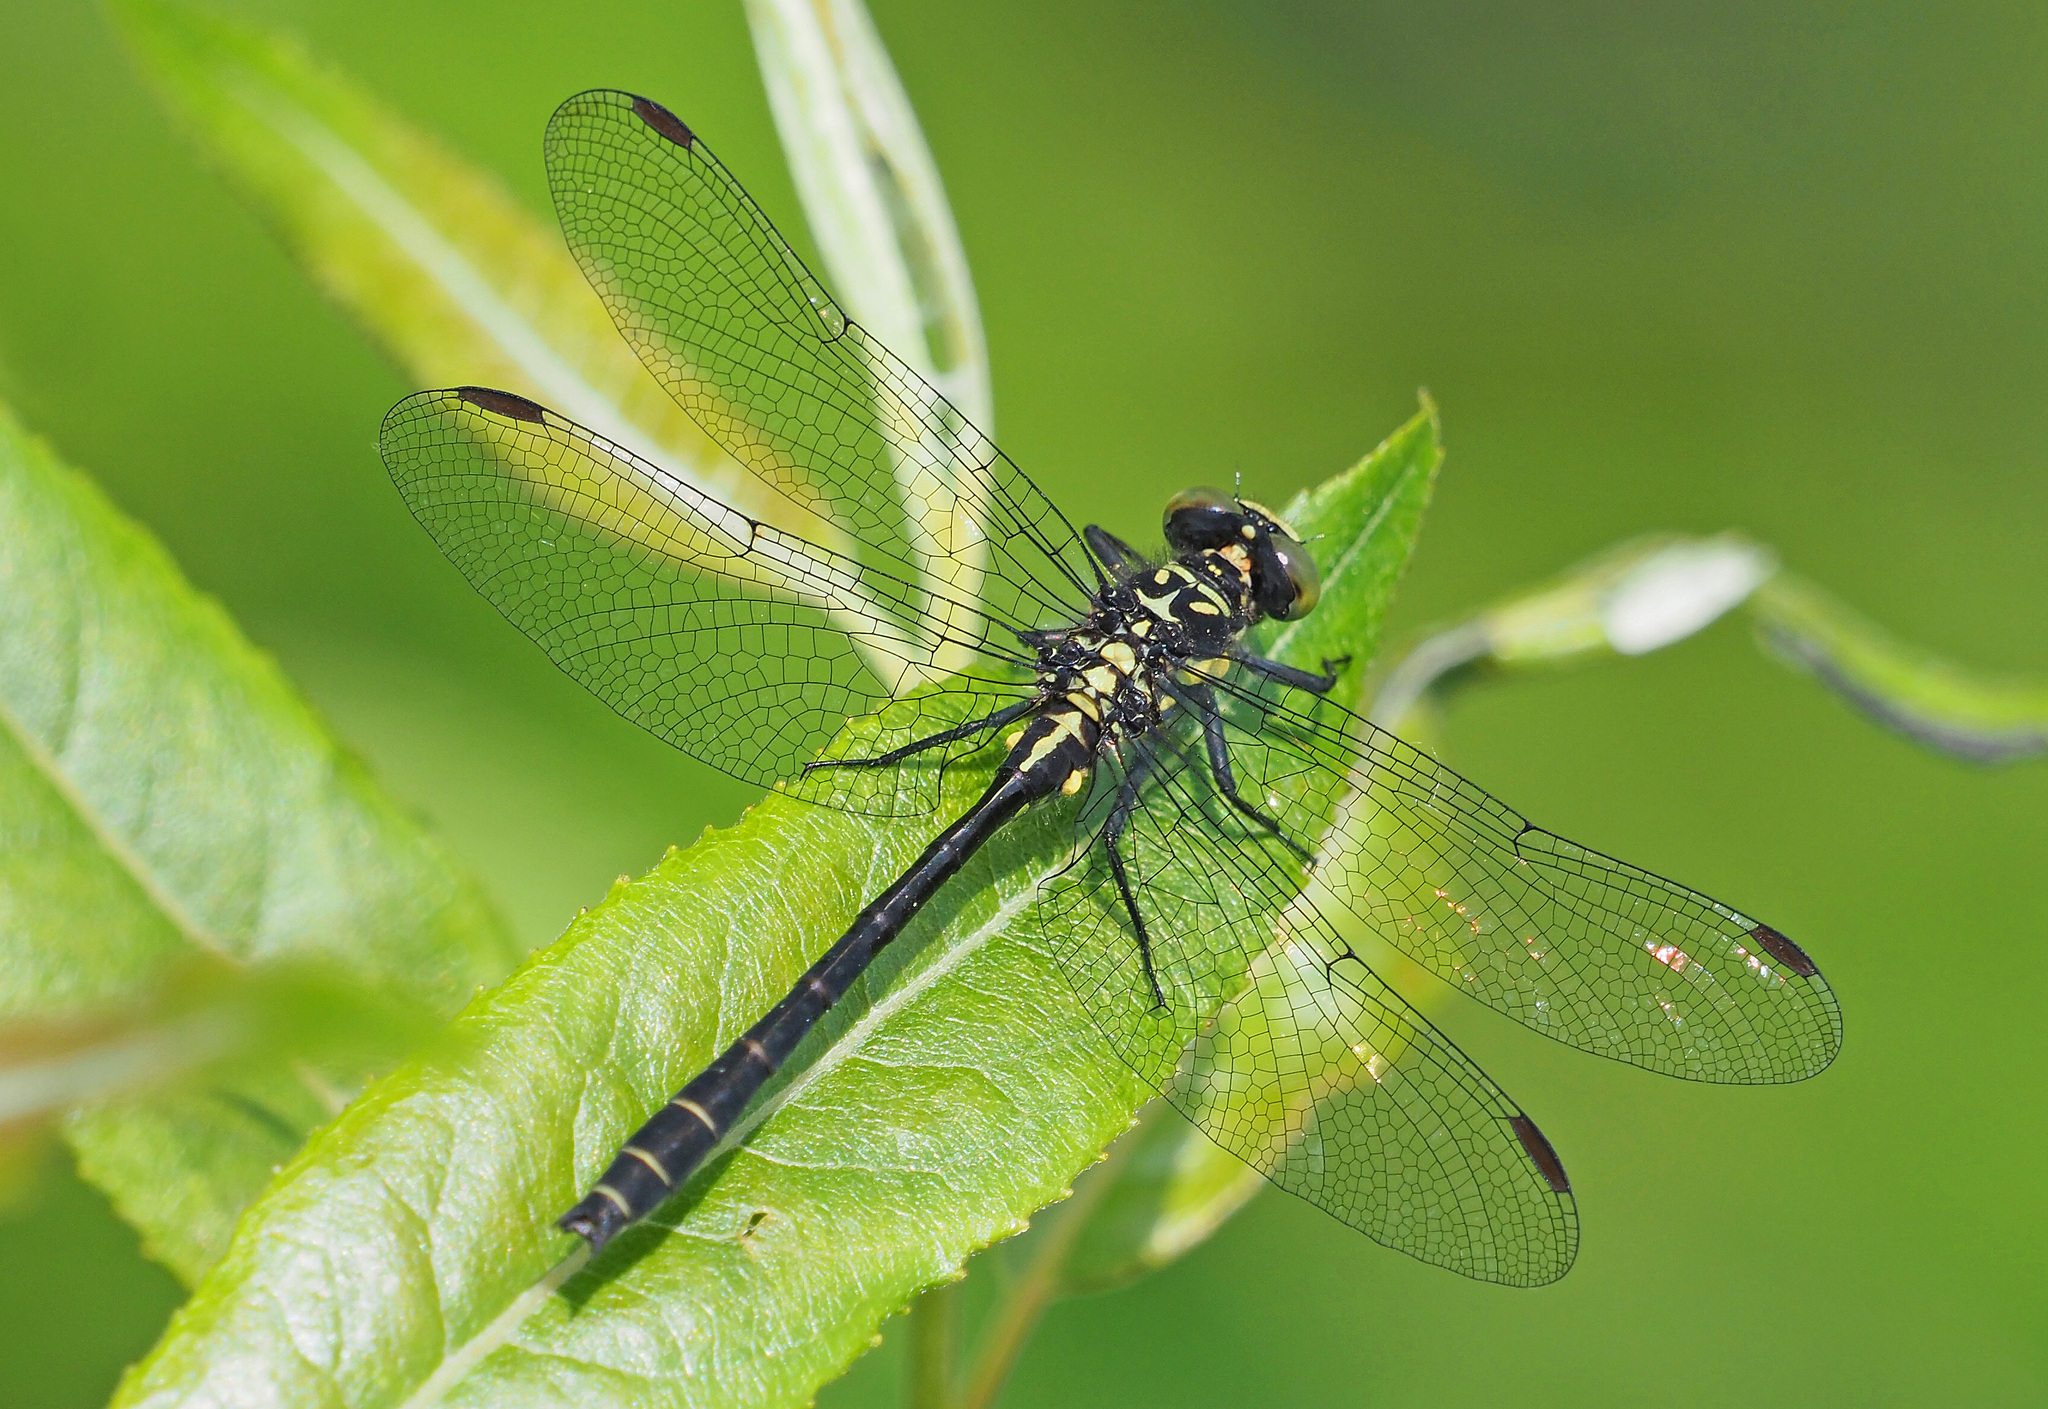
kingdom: Animalia
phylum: Arthropoda
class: Insecta
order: Odonata
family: Gomphidae
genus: Lanthus
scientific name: Lanthus parvulus
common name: Northern pygmy clubtail
